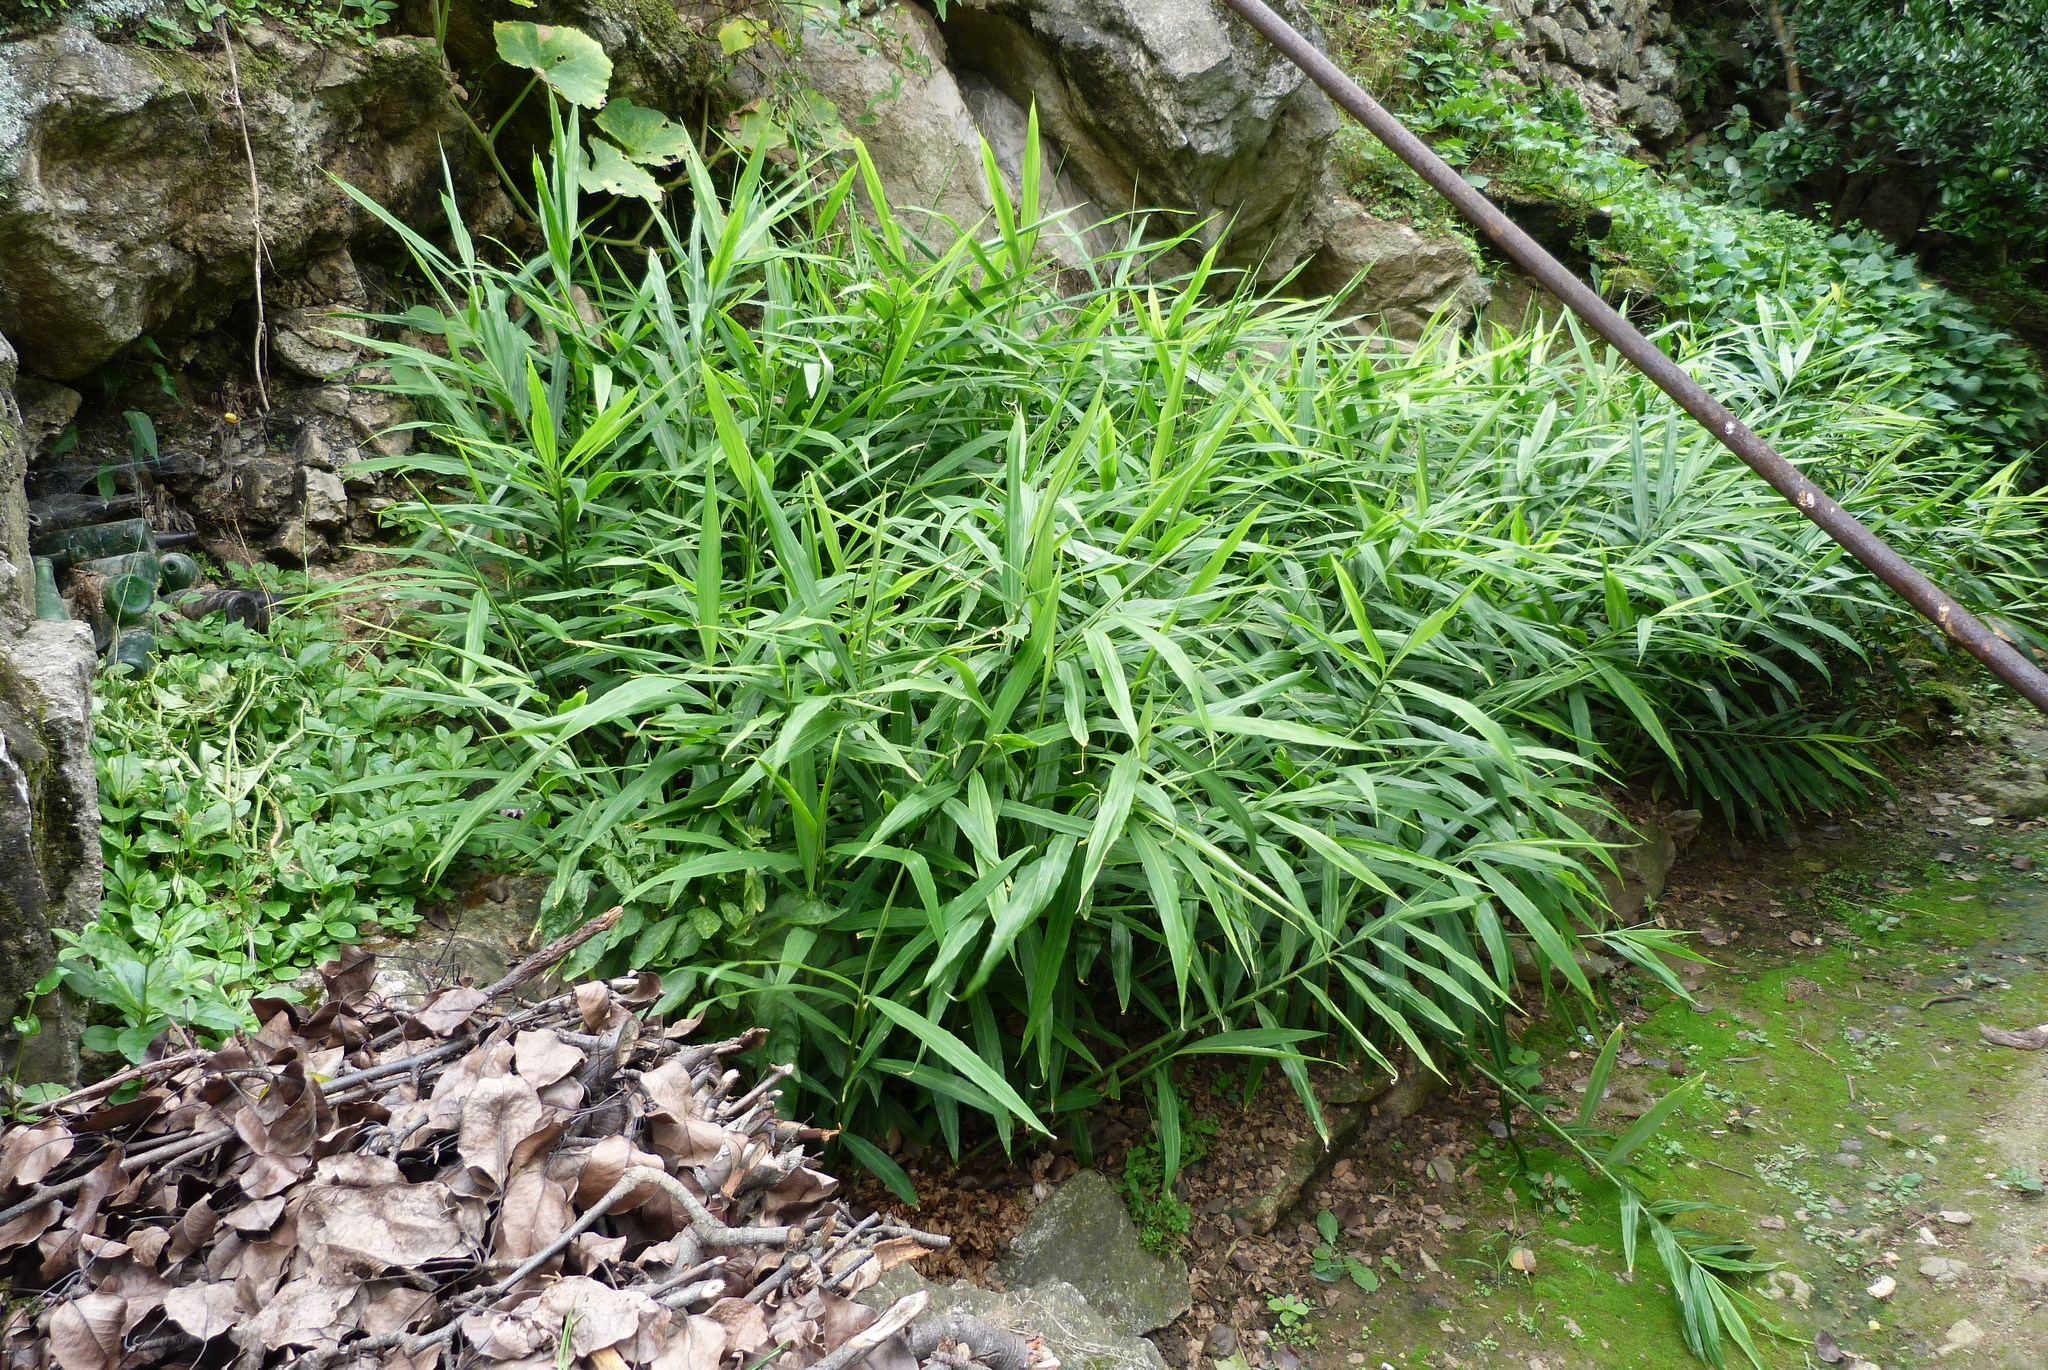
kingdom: Plantae
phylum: Tracheophyta
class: Liliopsida
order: Zingiberales
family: Zingiberaceae
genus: Zingiber
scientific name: Zingiber officinale
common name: Ginger
